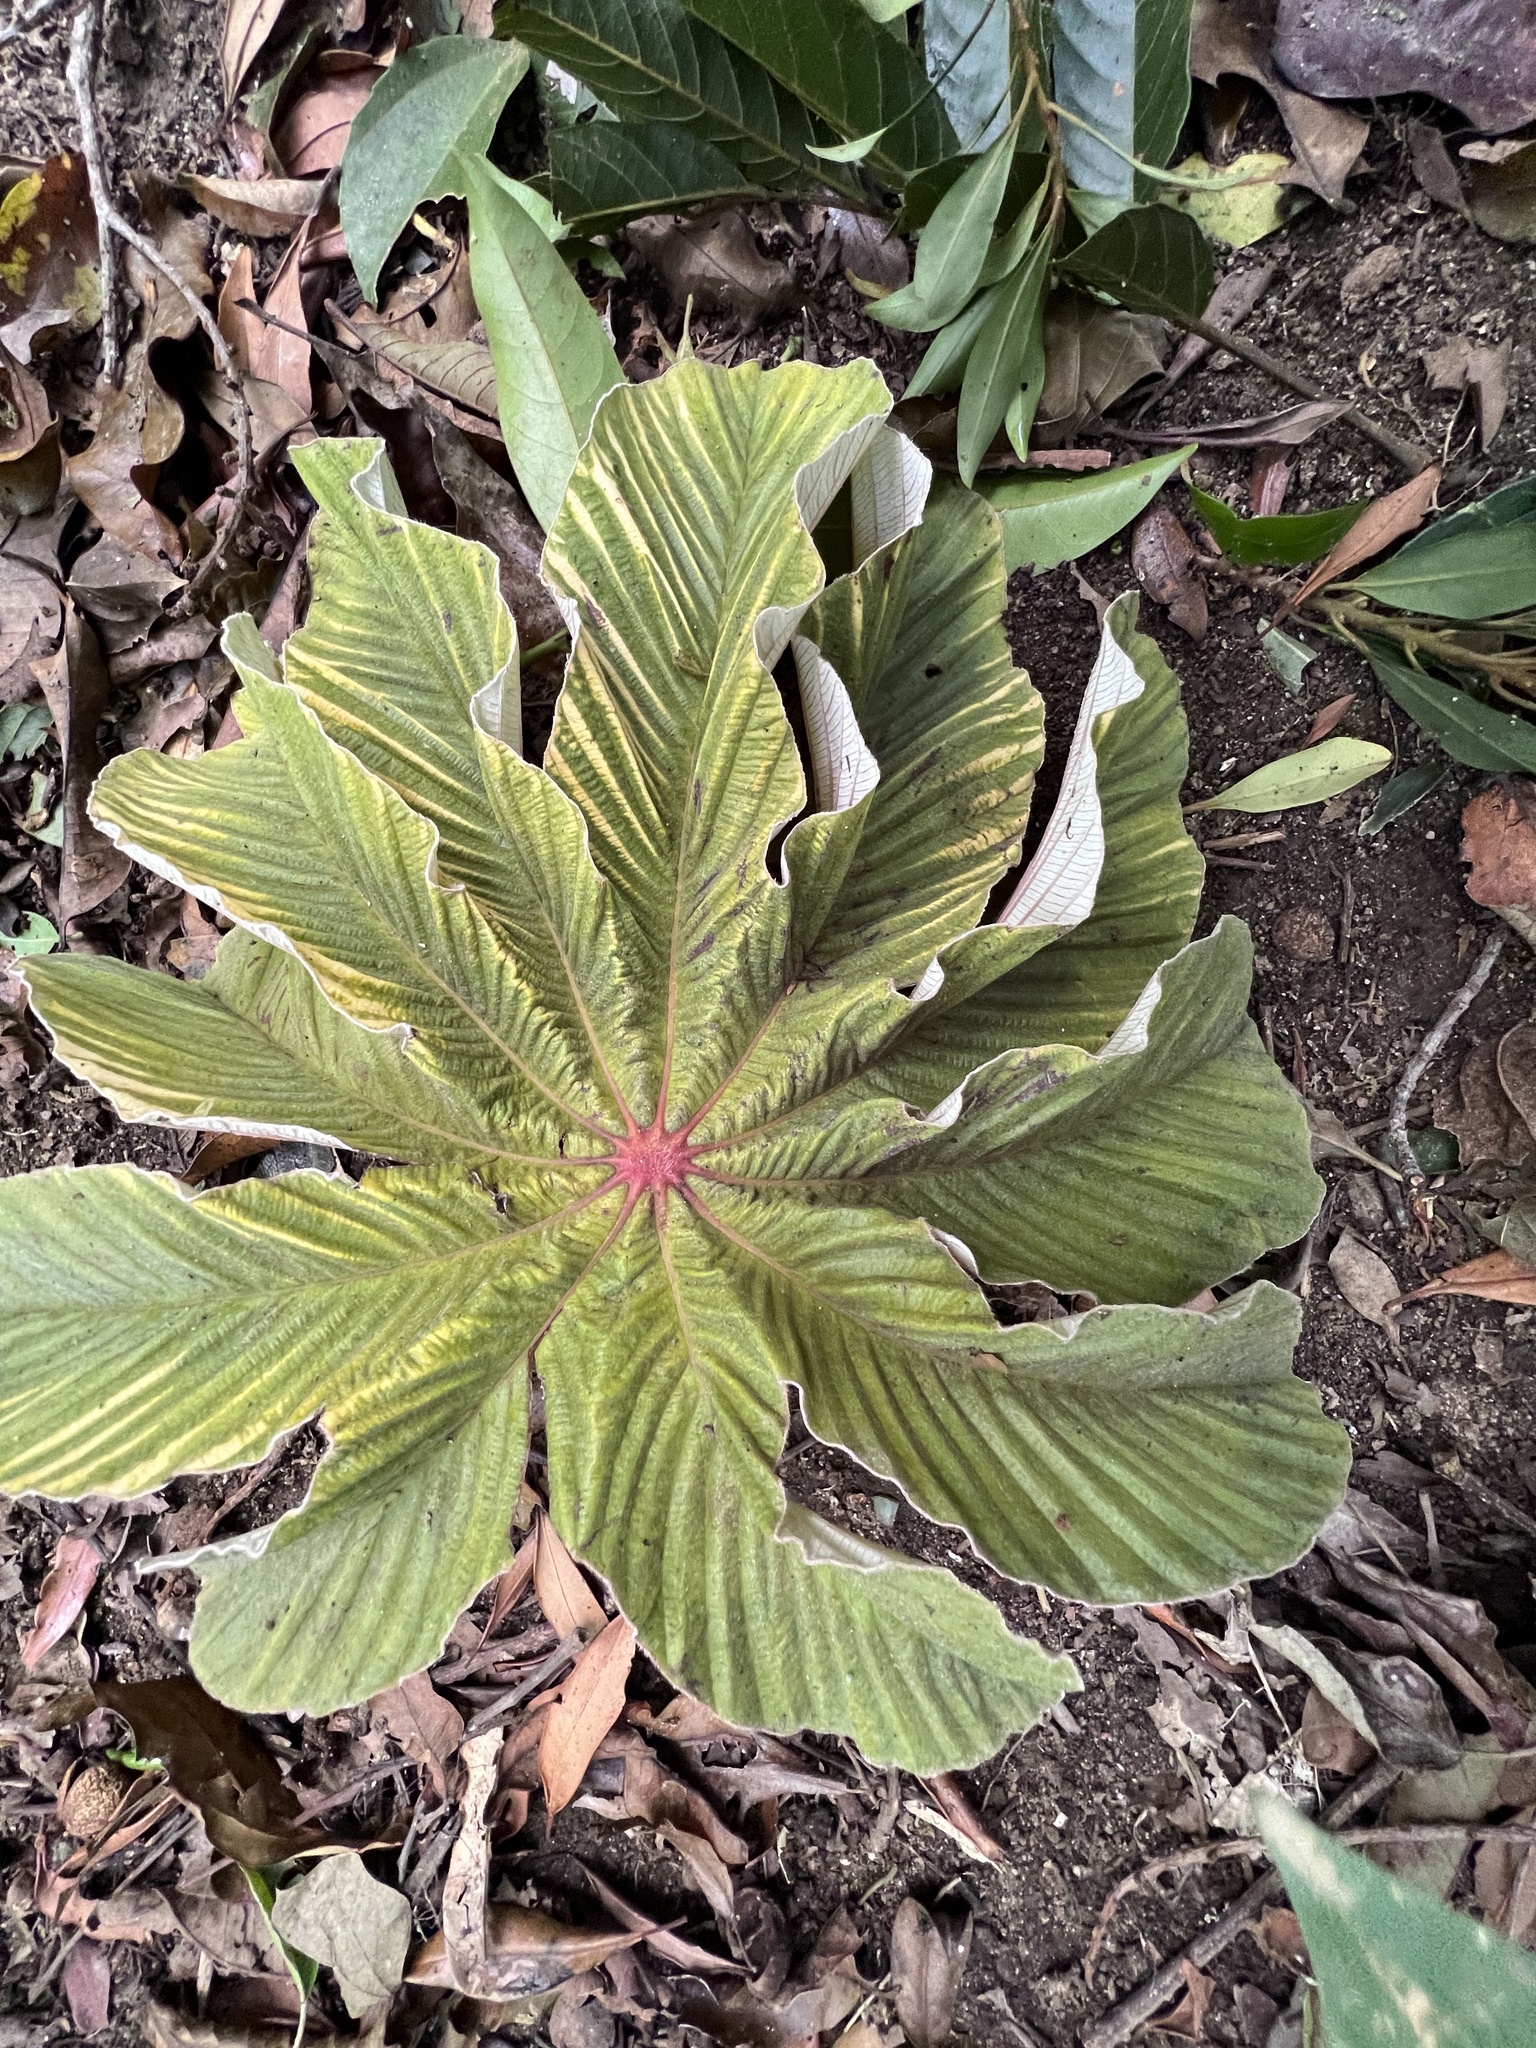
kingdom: Plantae
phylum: Tracheophyta
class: Magnoliopsida
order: Rosales
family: Urticaceae
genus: Cecropia
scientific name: Cecropia angustifolia
